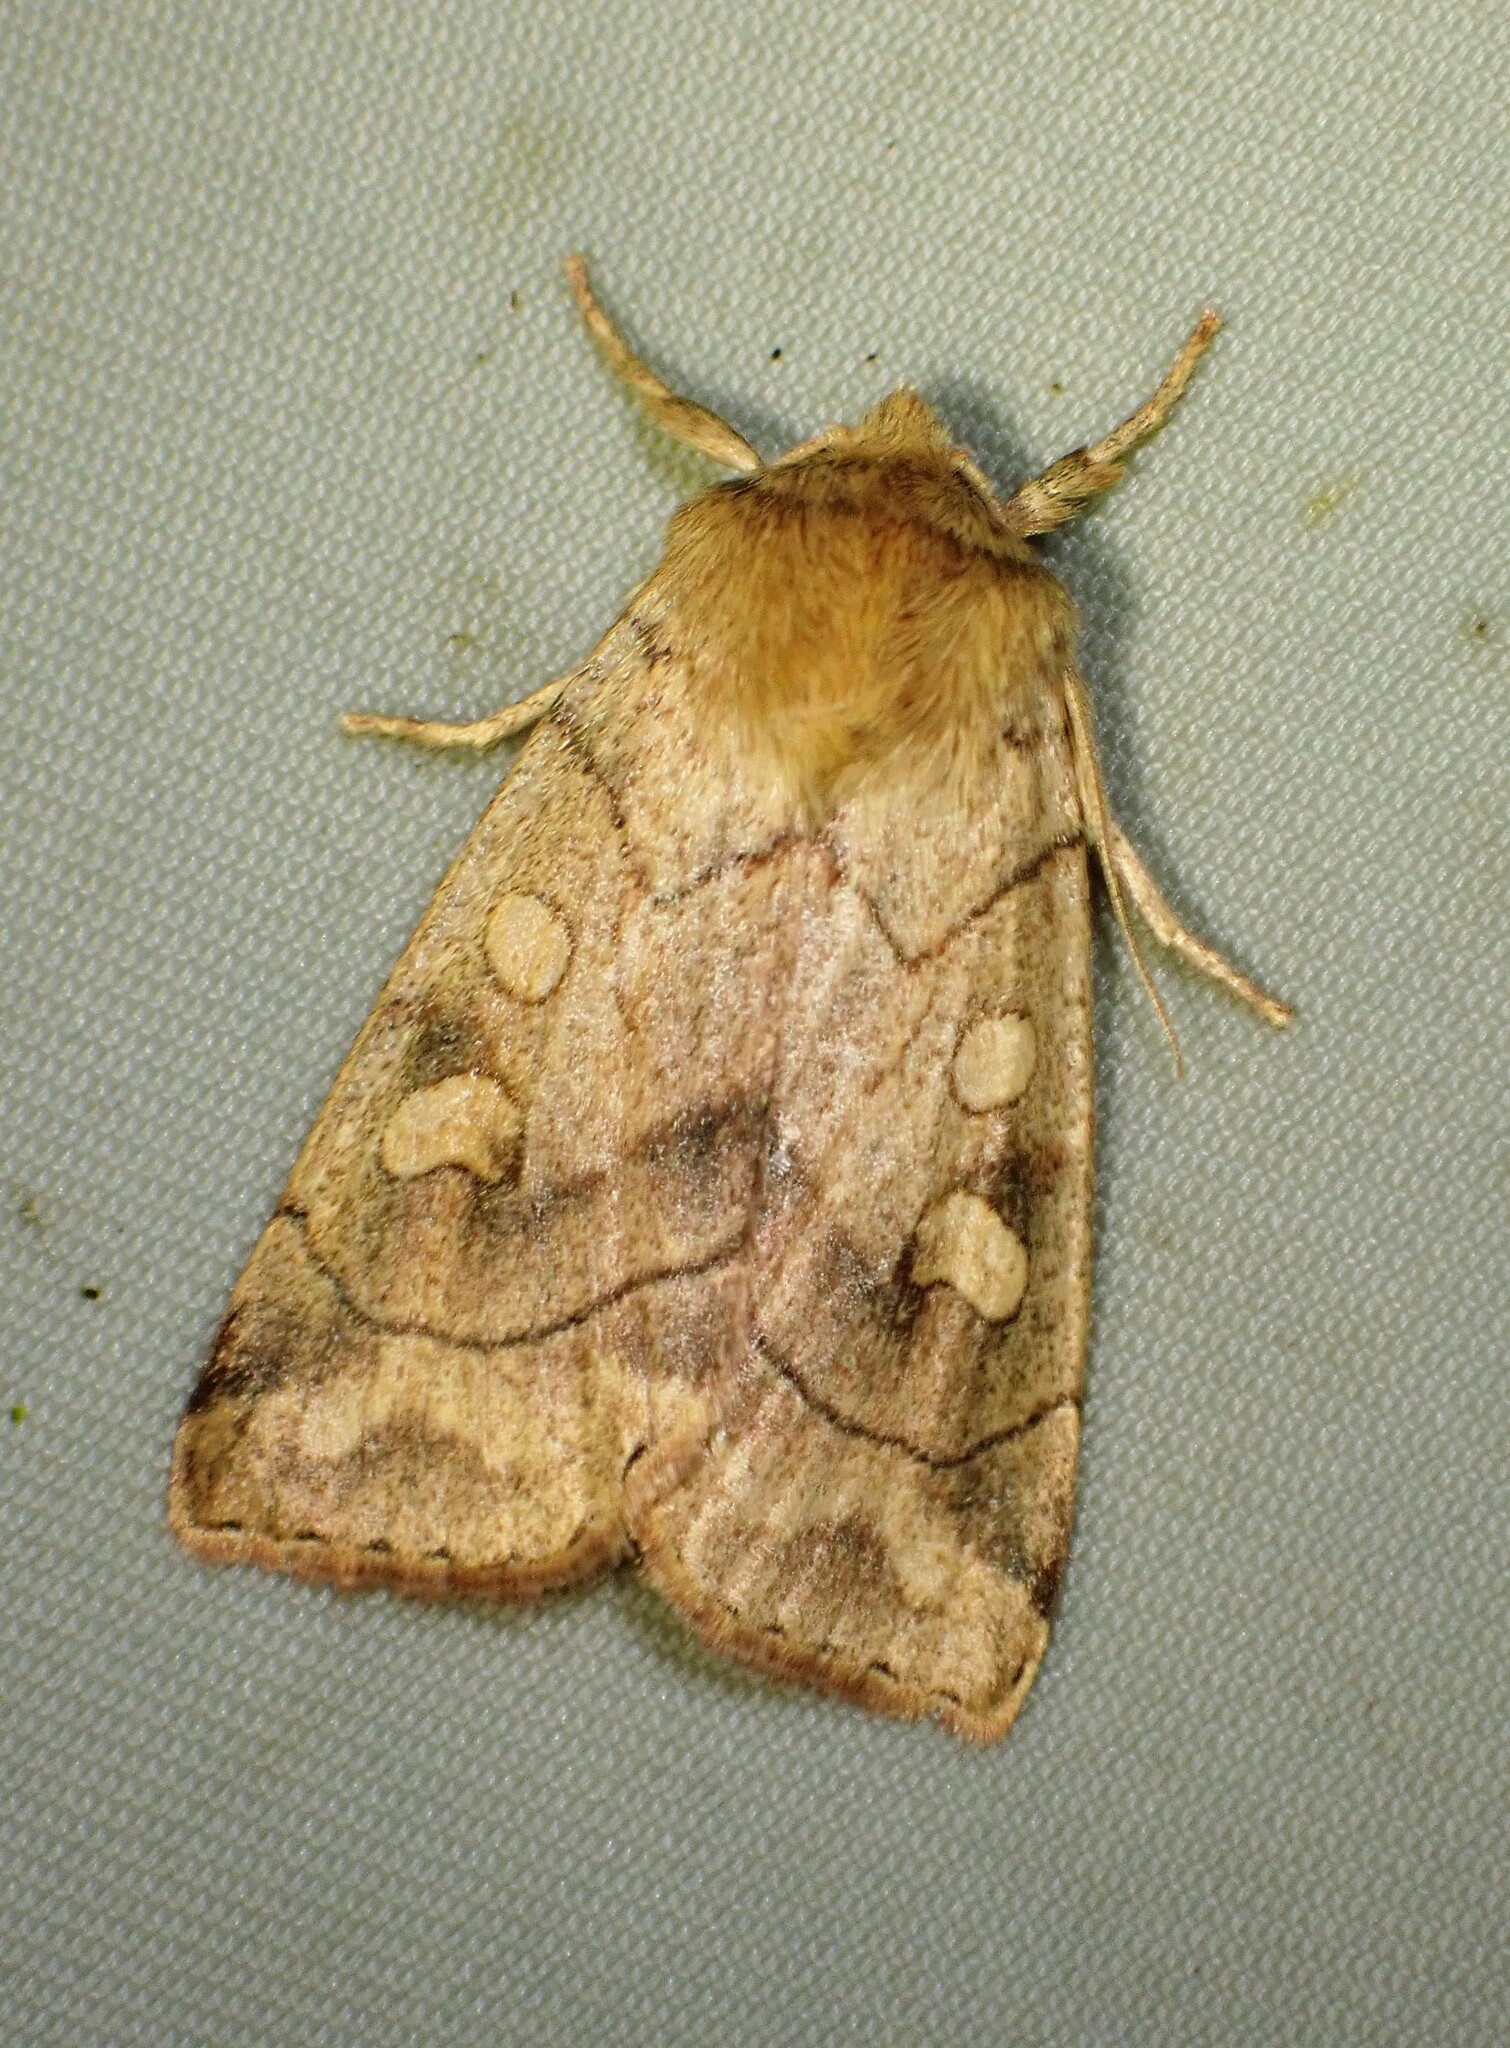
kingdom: Animalia
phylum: Arthropoda
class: Insecta
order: Lepidoptera
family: Noctuidae
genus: Enargia
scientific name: Enargia decolor
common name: Aspen twoleaf tier moth
